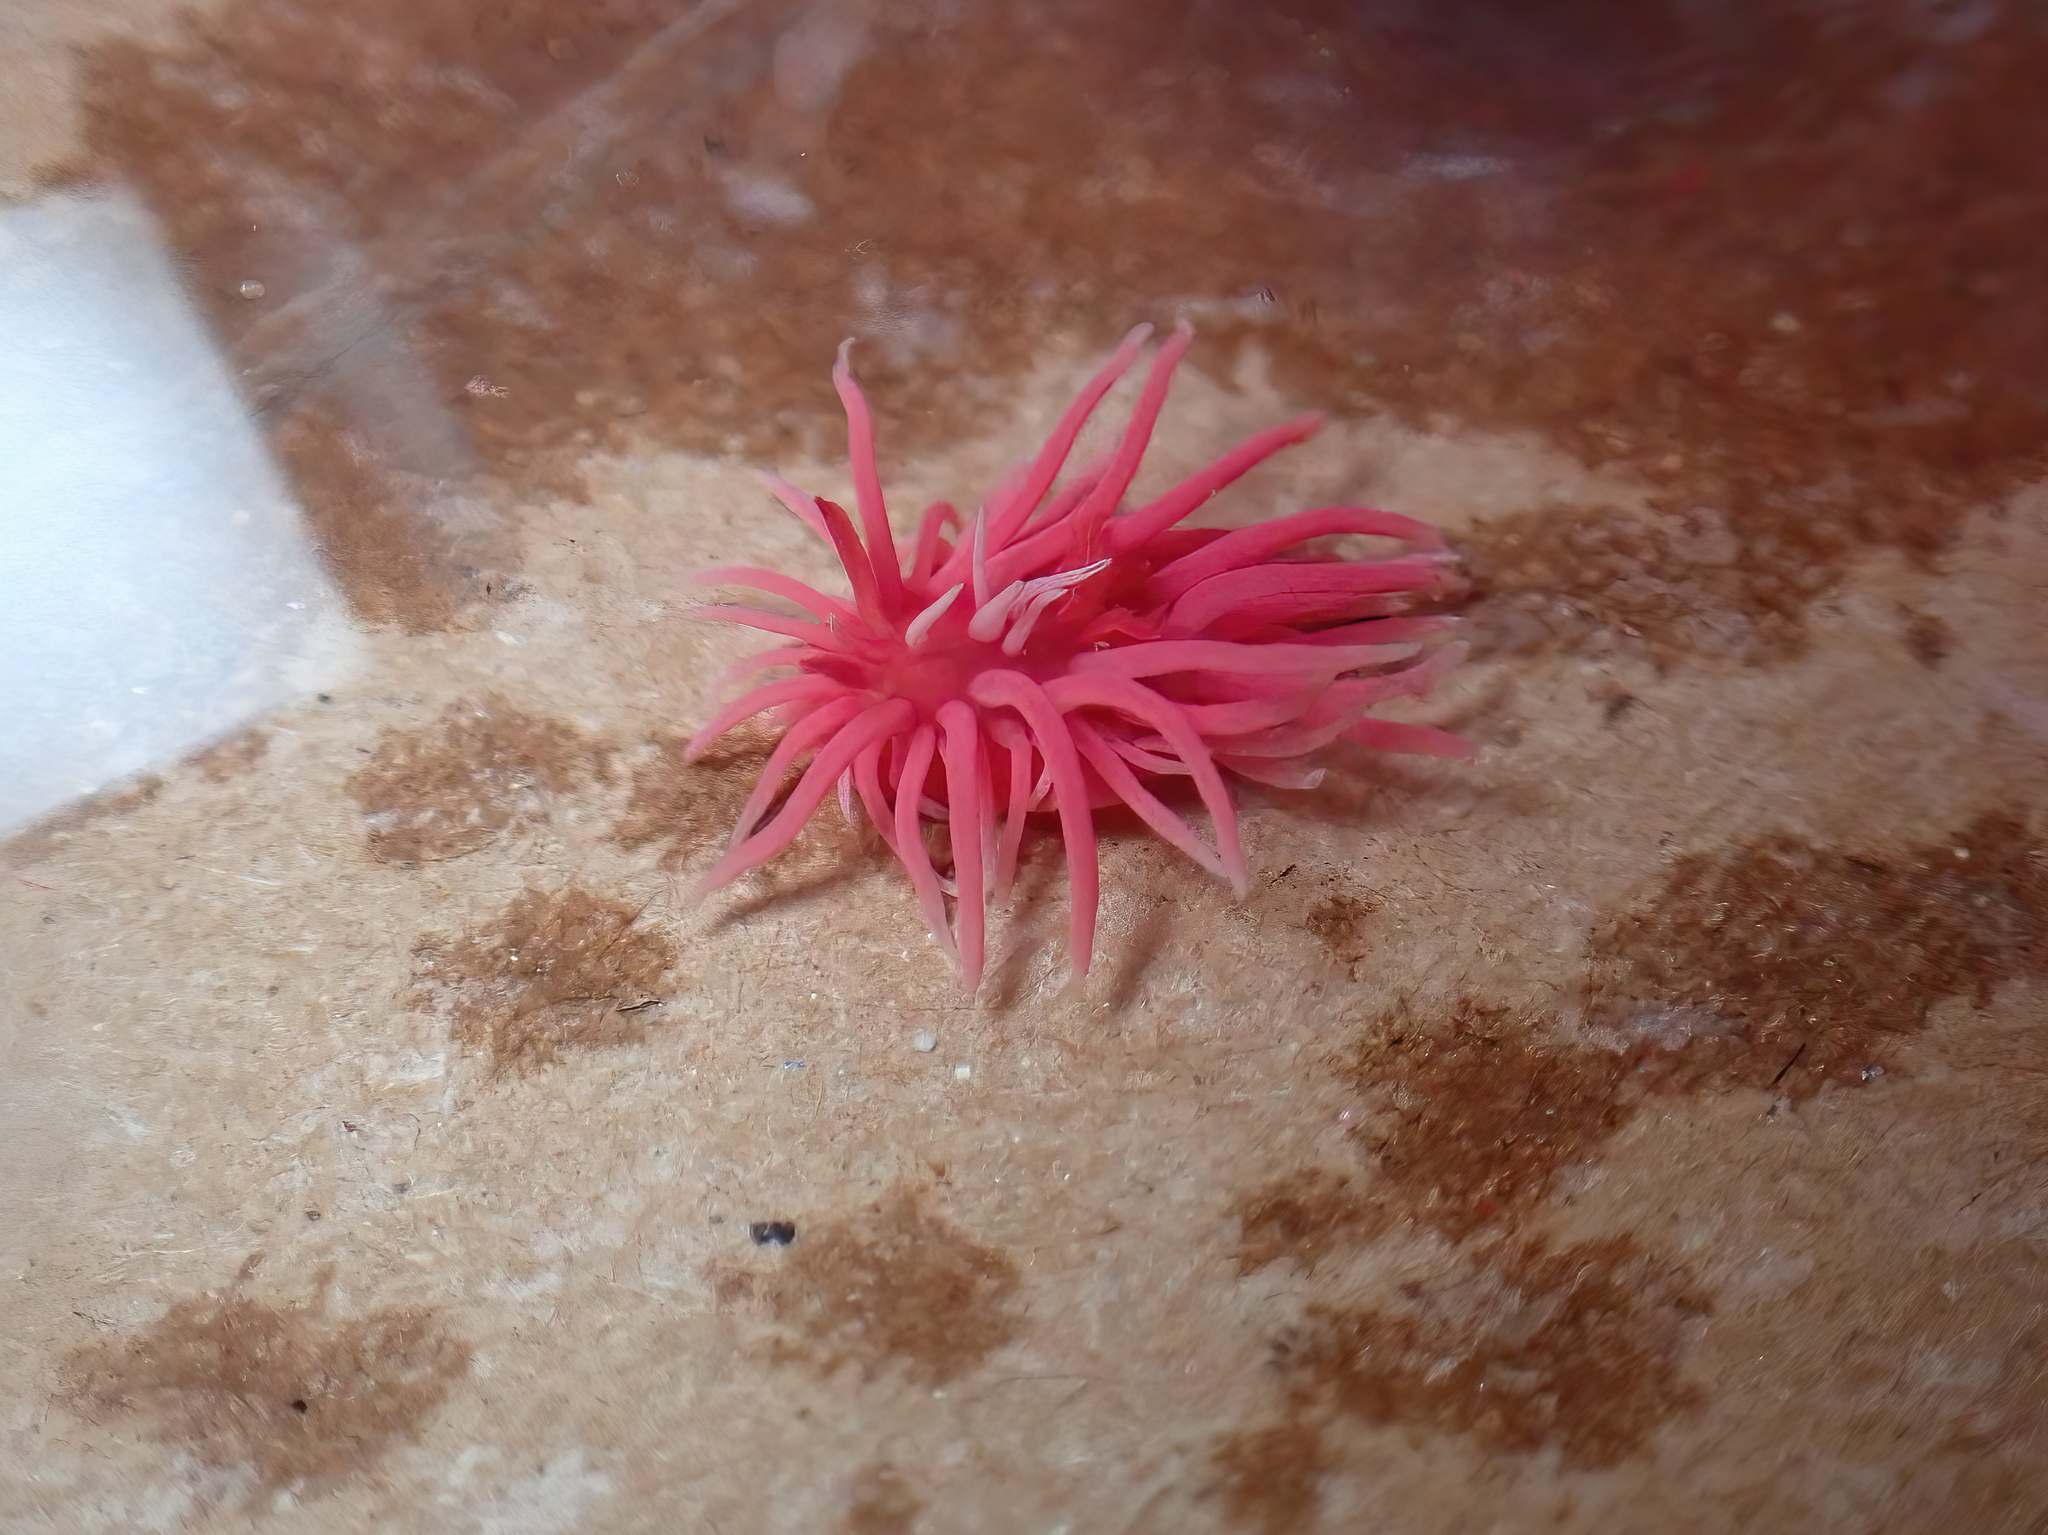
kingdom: Animalia
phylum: Mollusca
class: Gastropoda
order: Nudibranchia
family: Goniodorididae
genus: Okenia
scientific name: Okenia
